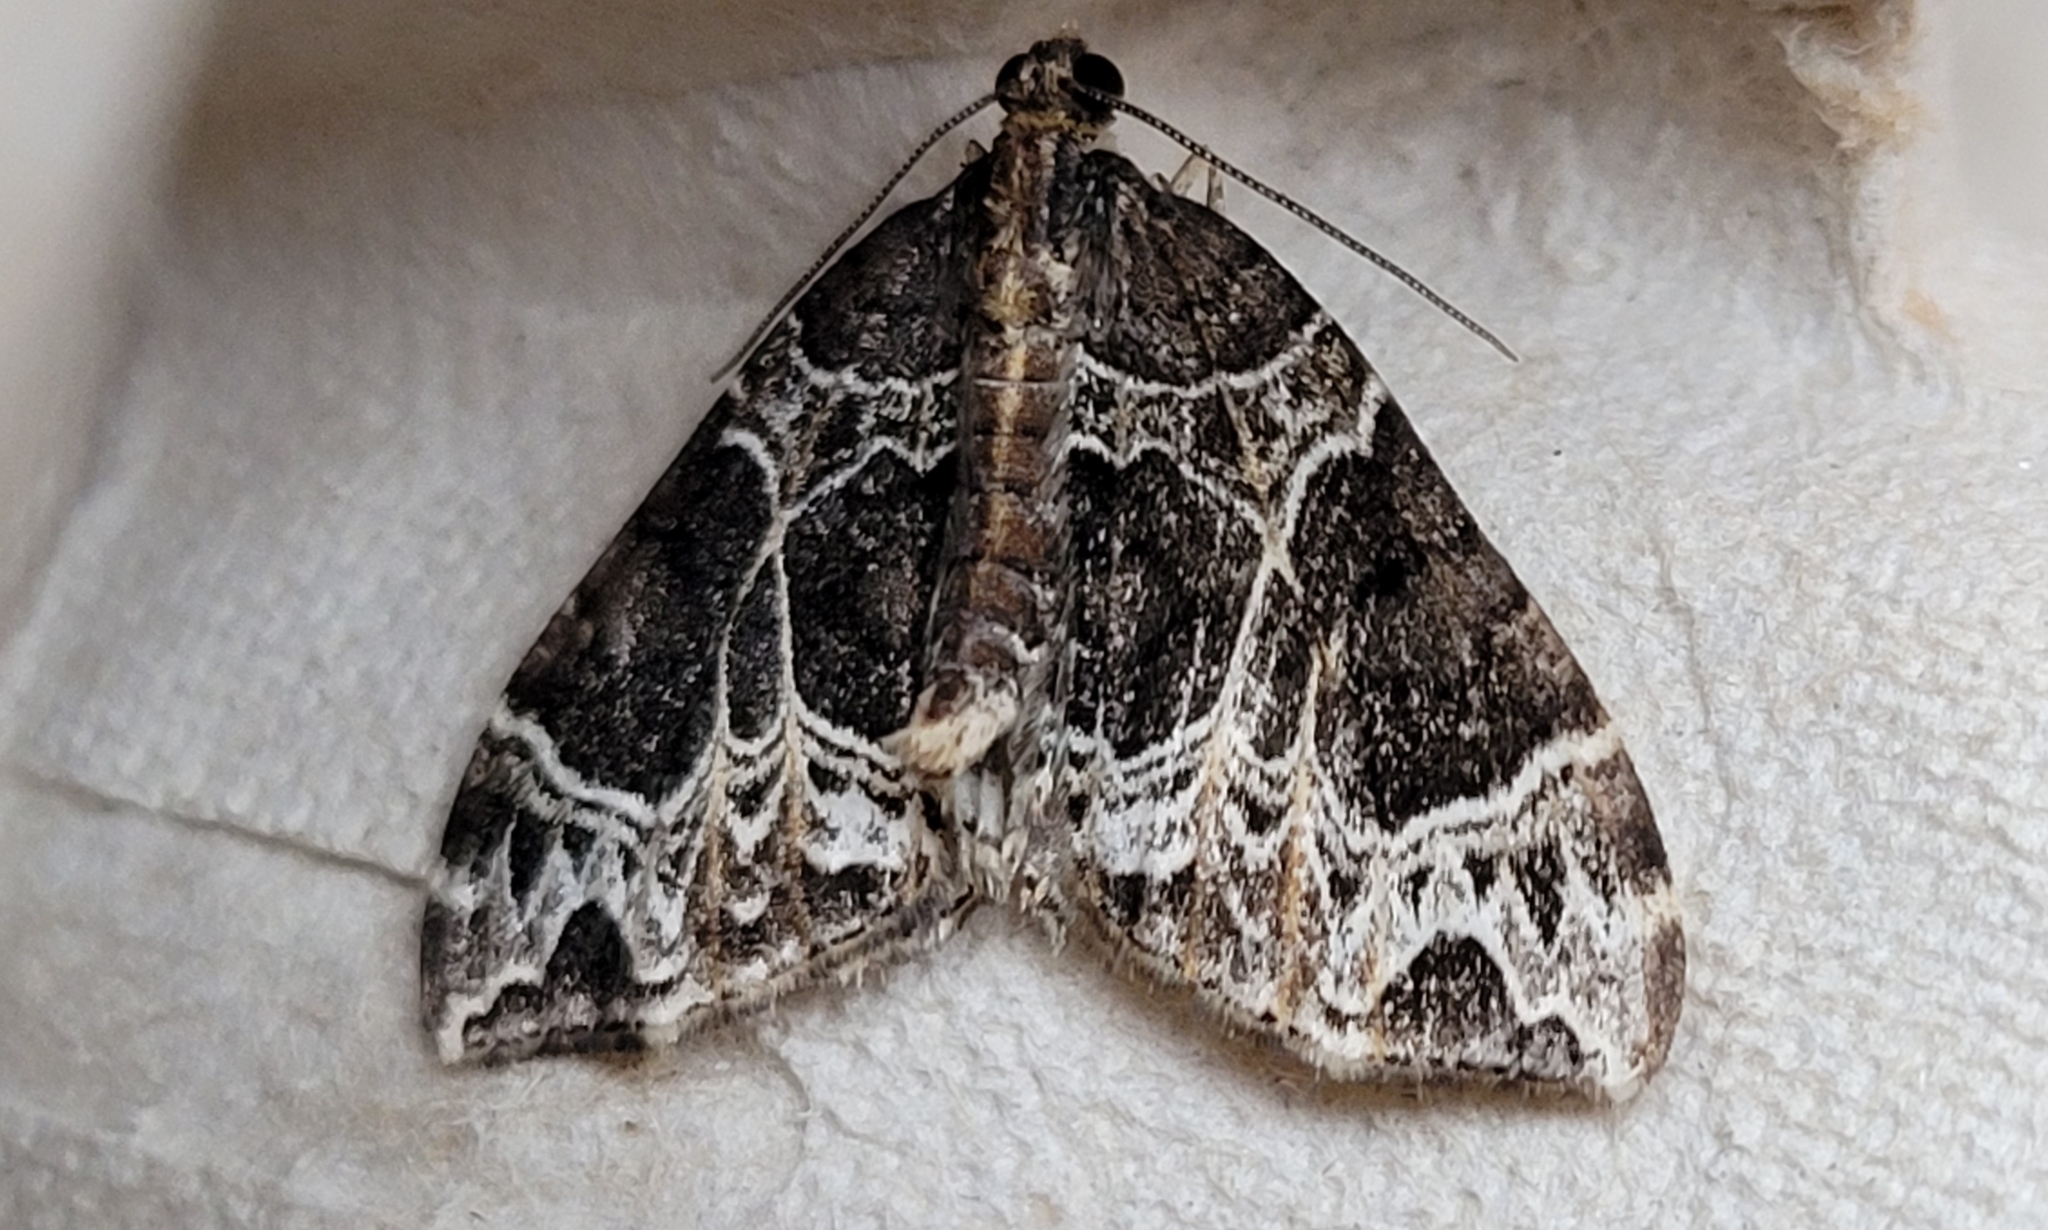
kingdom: Animalia
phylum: Arthropoda
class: Insecta
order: Lepidoptera
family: Geometridae
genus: Ecliptopera
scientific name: Ecliptopera silaceata
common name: Small phoenix
